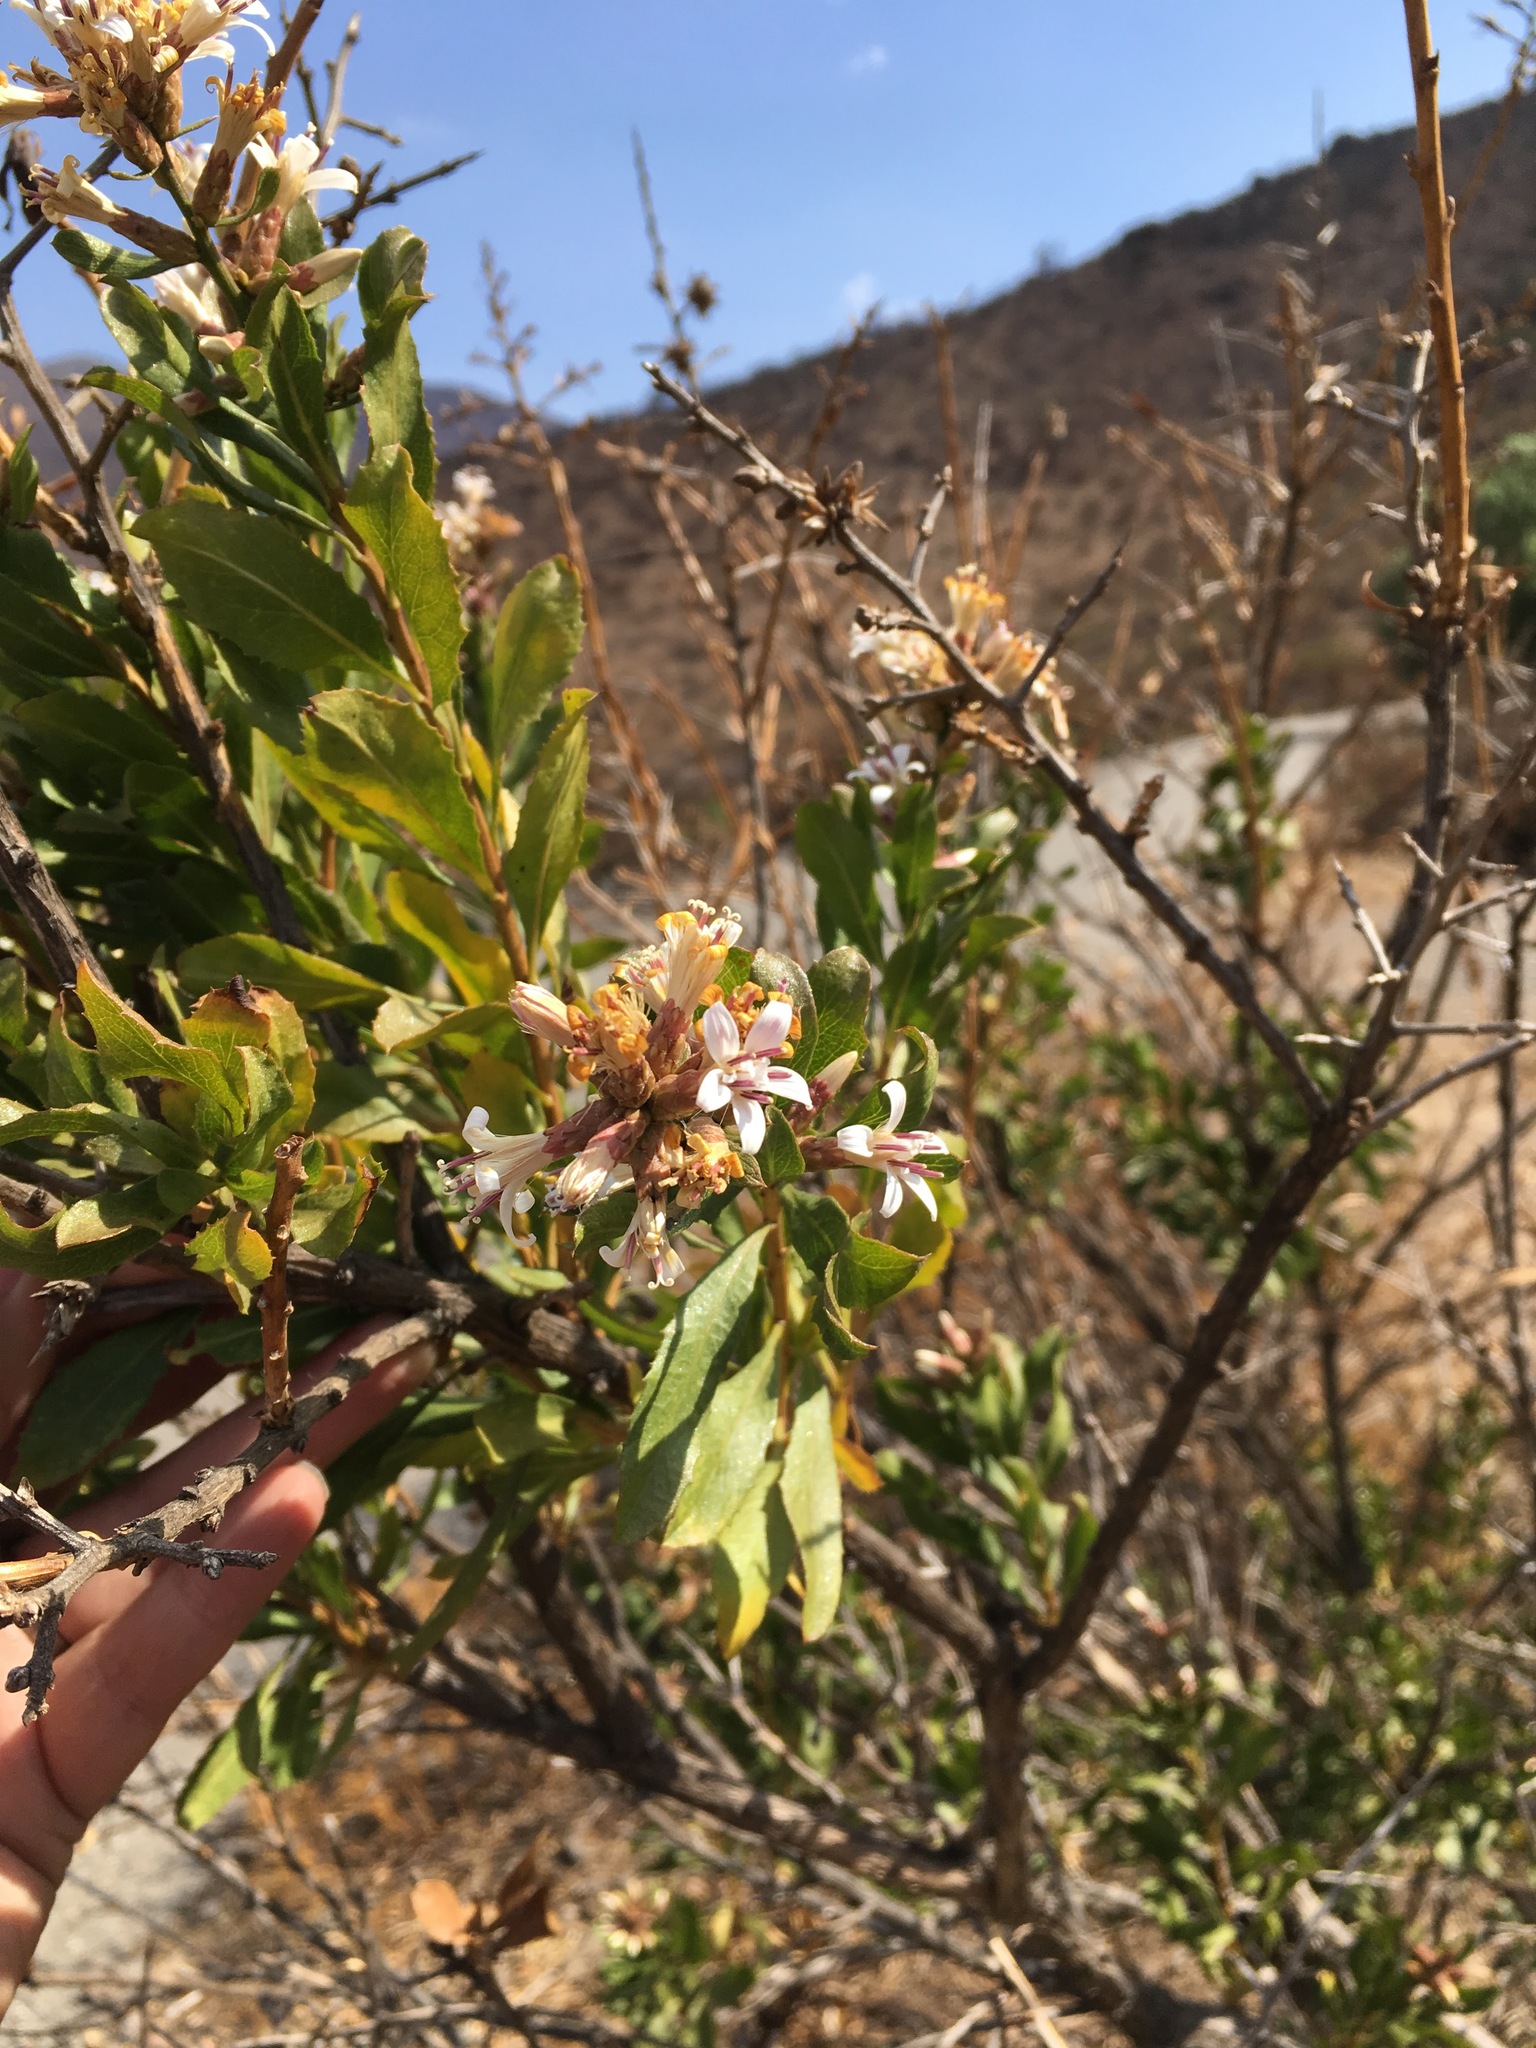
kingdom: Plantae
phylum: Tracheophyta
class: Magnoliopsida
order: Asterales
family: Asteraceae
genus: Proustia
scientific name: Proustia cuneifolia
